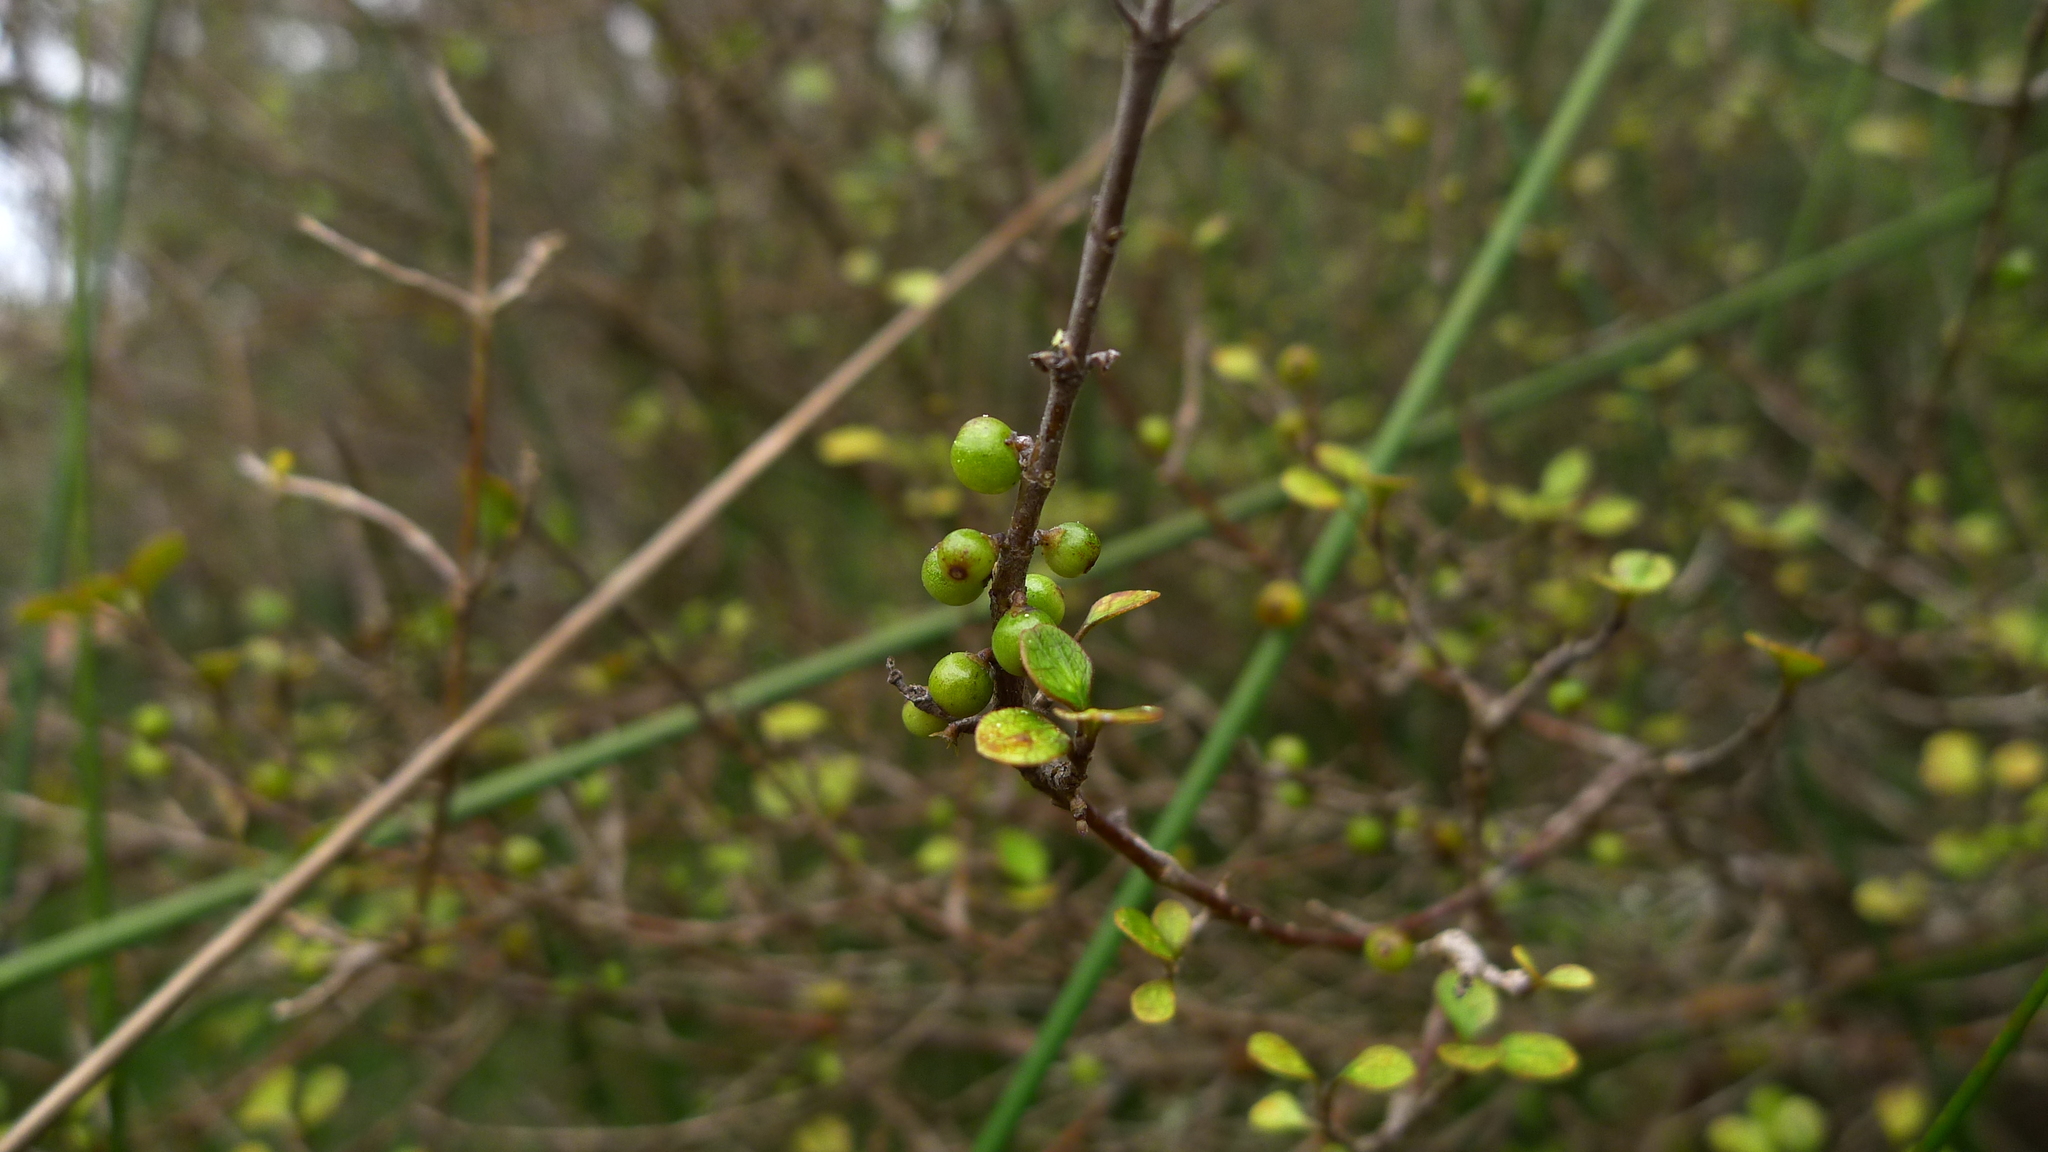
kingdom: Plantae
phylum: Tracheophyta
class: Magnoliopsida
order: Gentianales
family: Rubiaceae
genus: Coprosma
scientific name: Coprosma tenuicaulis
